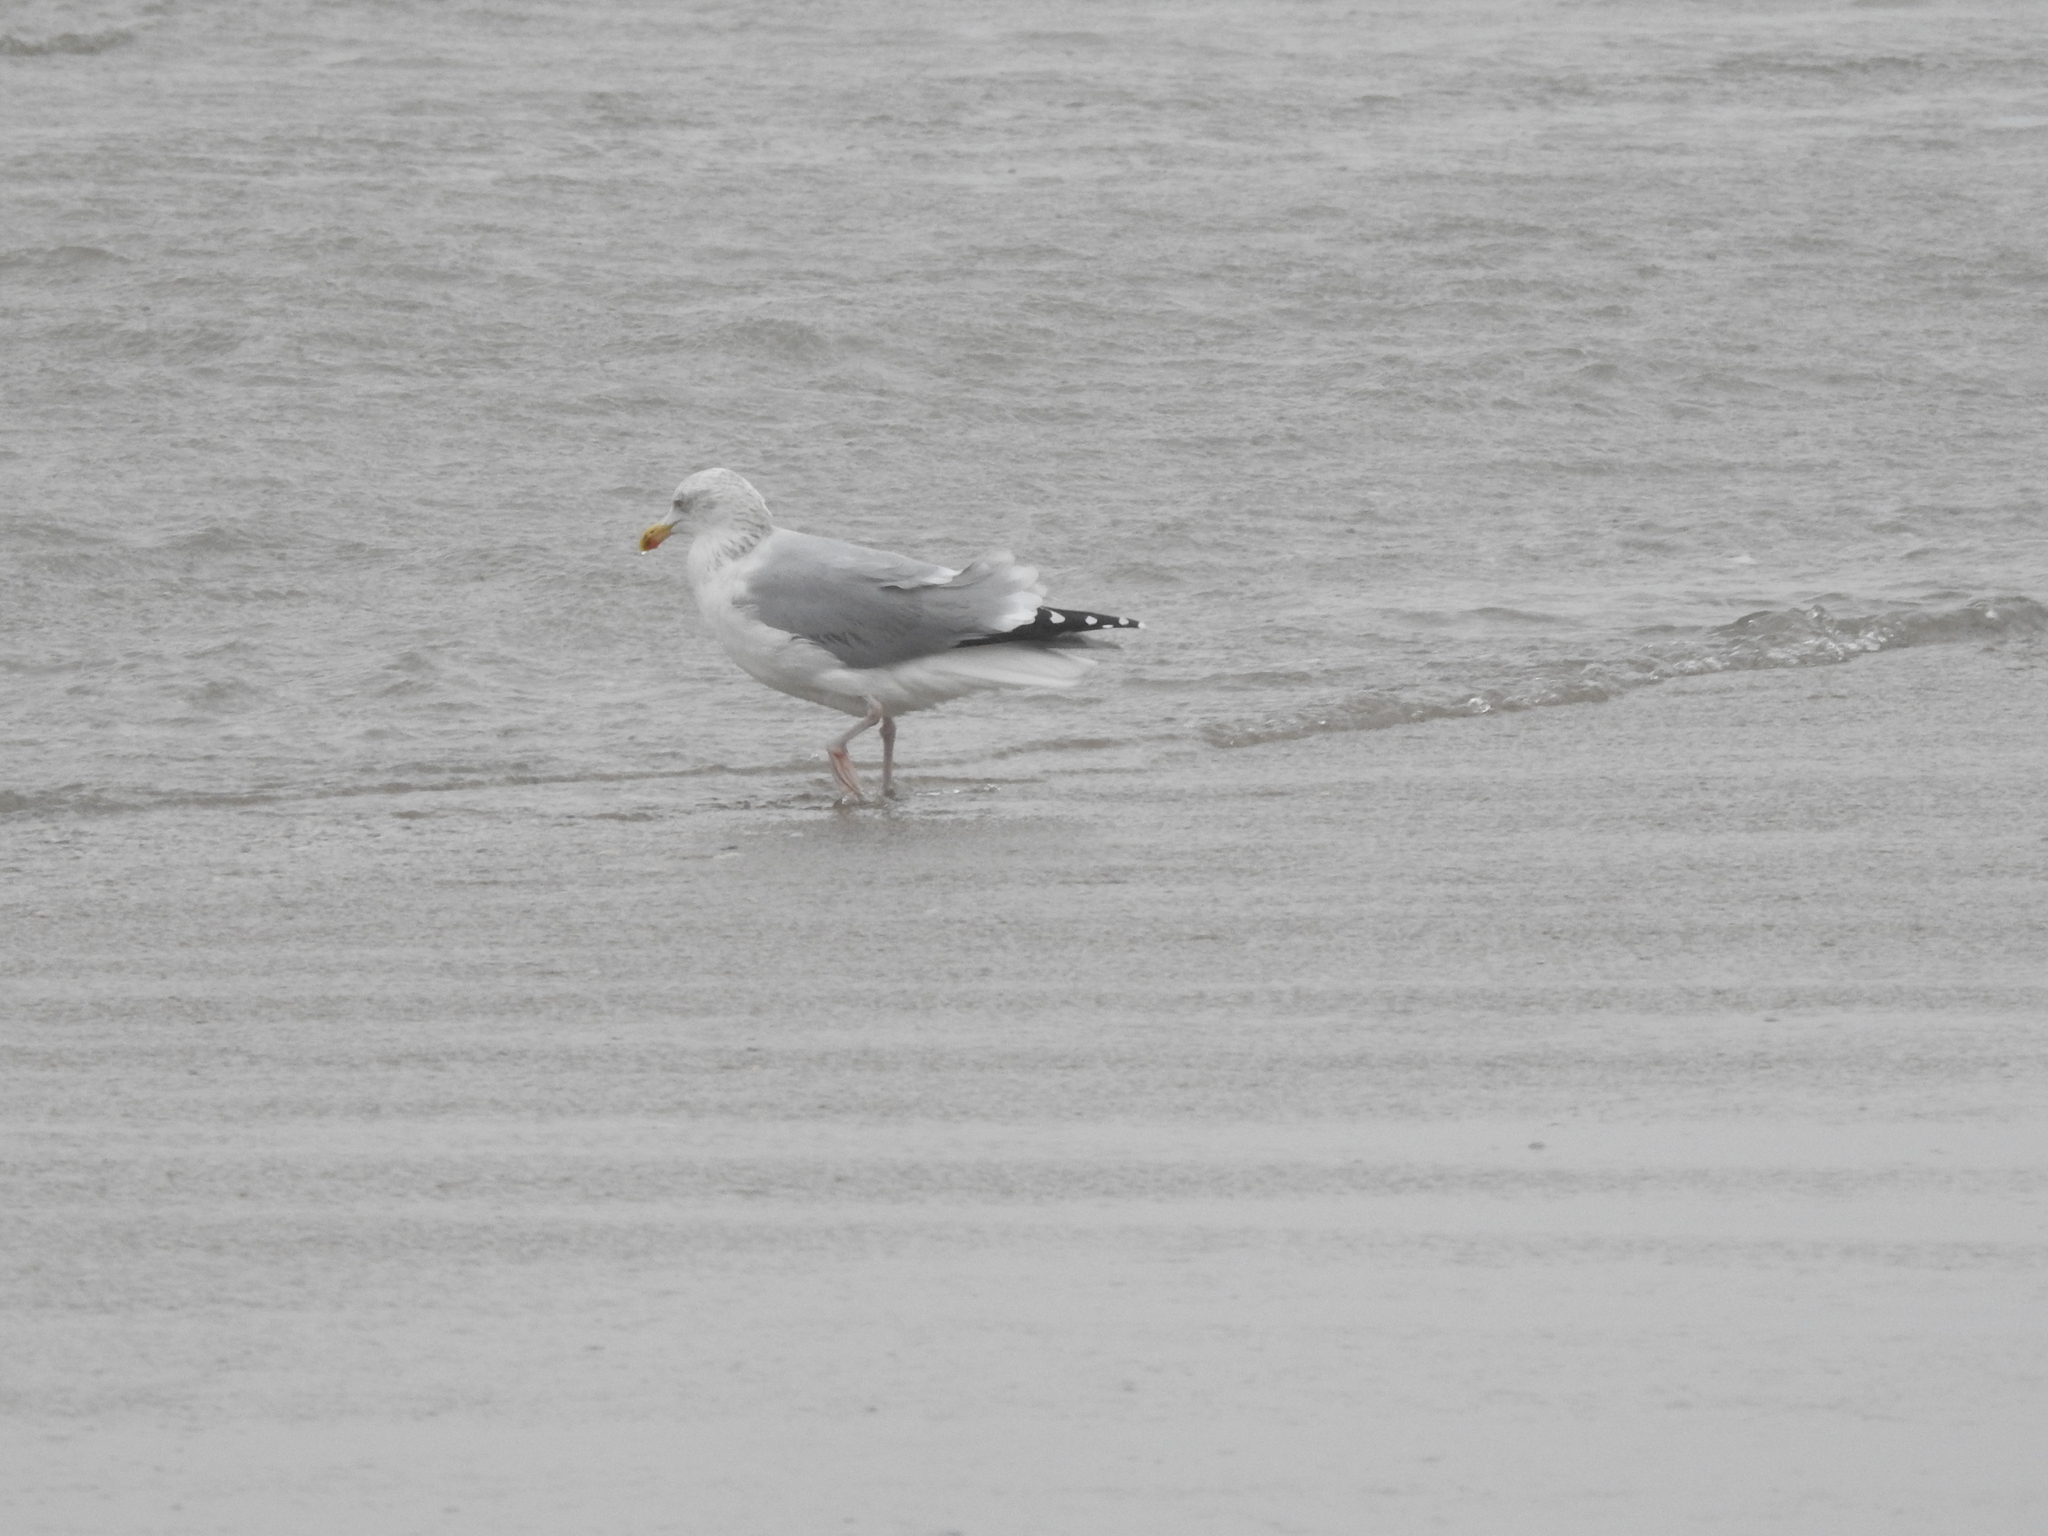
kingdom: Animalia
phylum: Chordata
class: Aves
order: Charadriiformes
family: Laridae
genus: Larus
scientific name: Larus argentatus
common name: Herring gull
